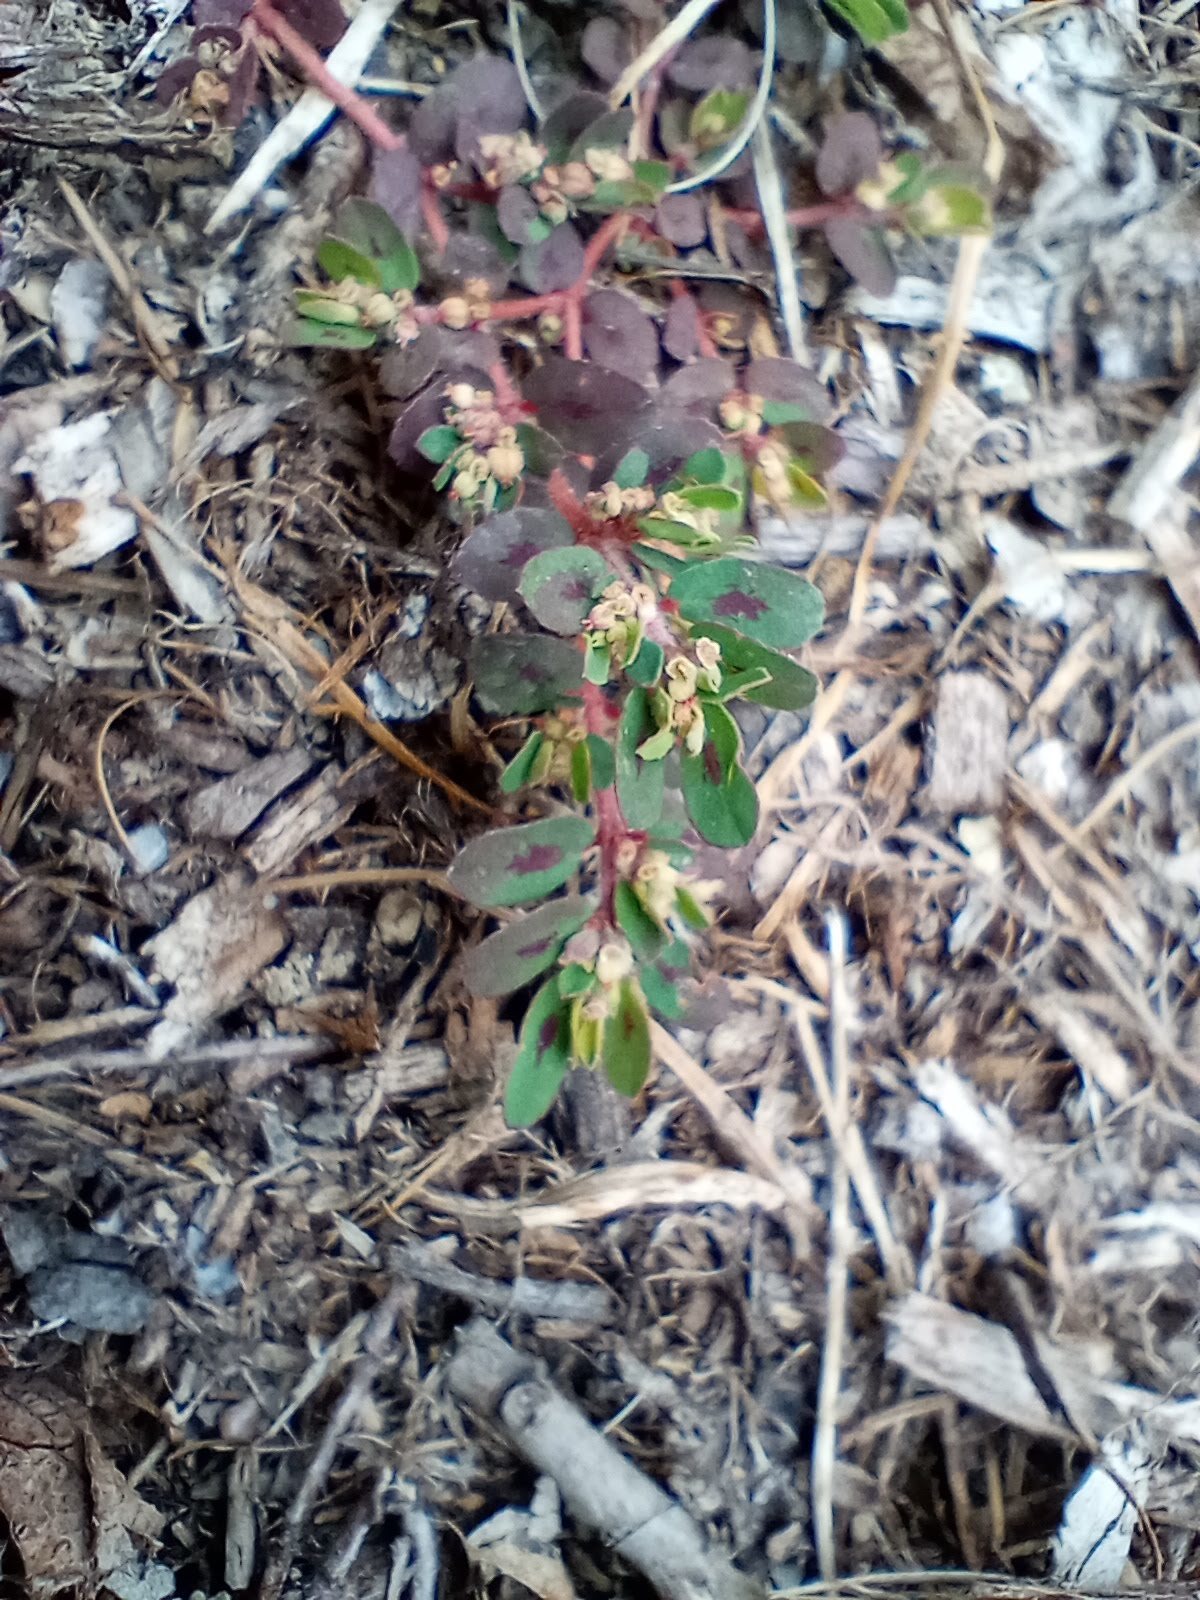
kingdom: Plantae
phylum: Tracheophyta
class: Magnoliopsida
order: Malpighiales
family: Euphorbiaceae
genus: Euphorbia
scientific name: Euphorbia maculata
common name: Spotted spurge
